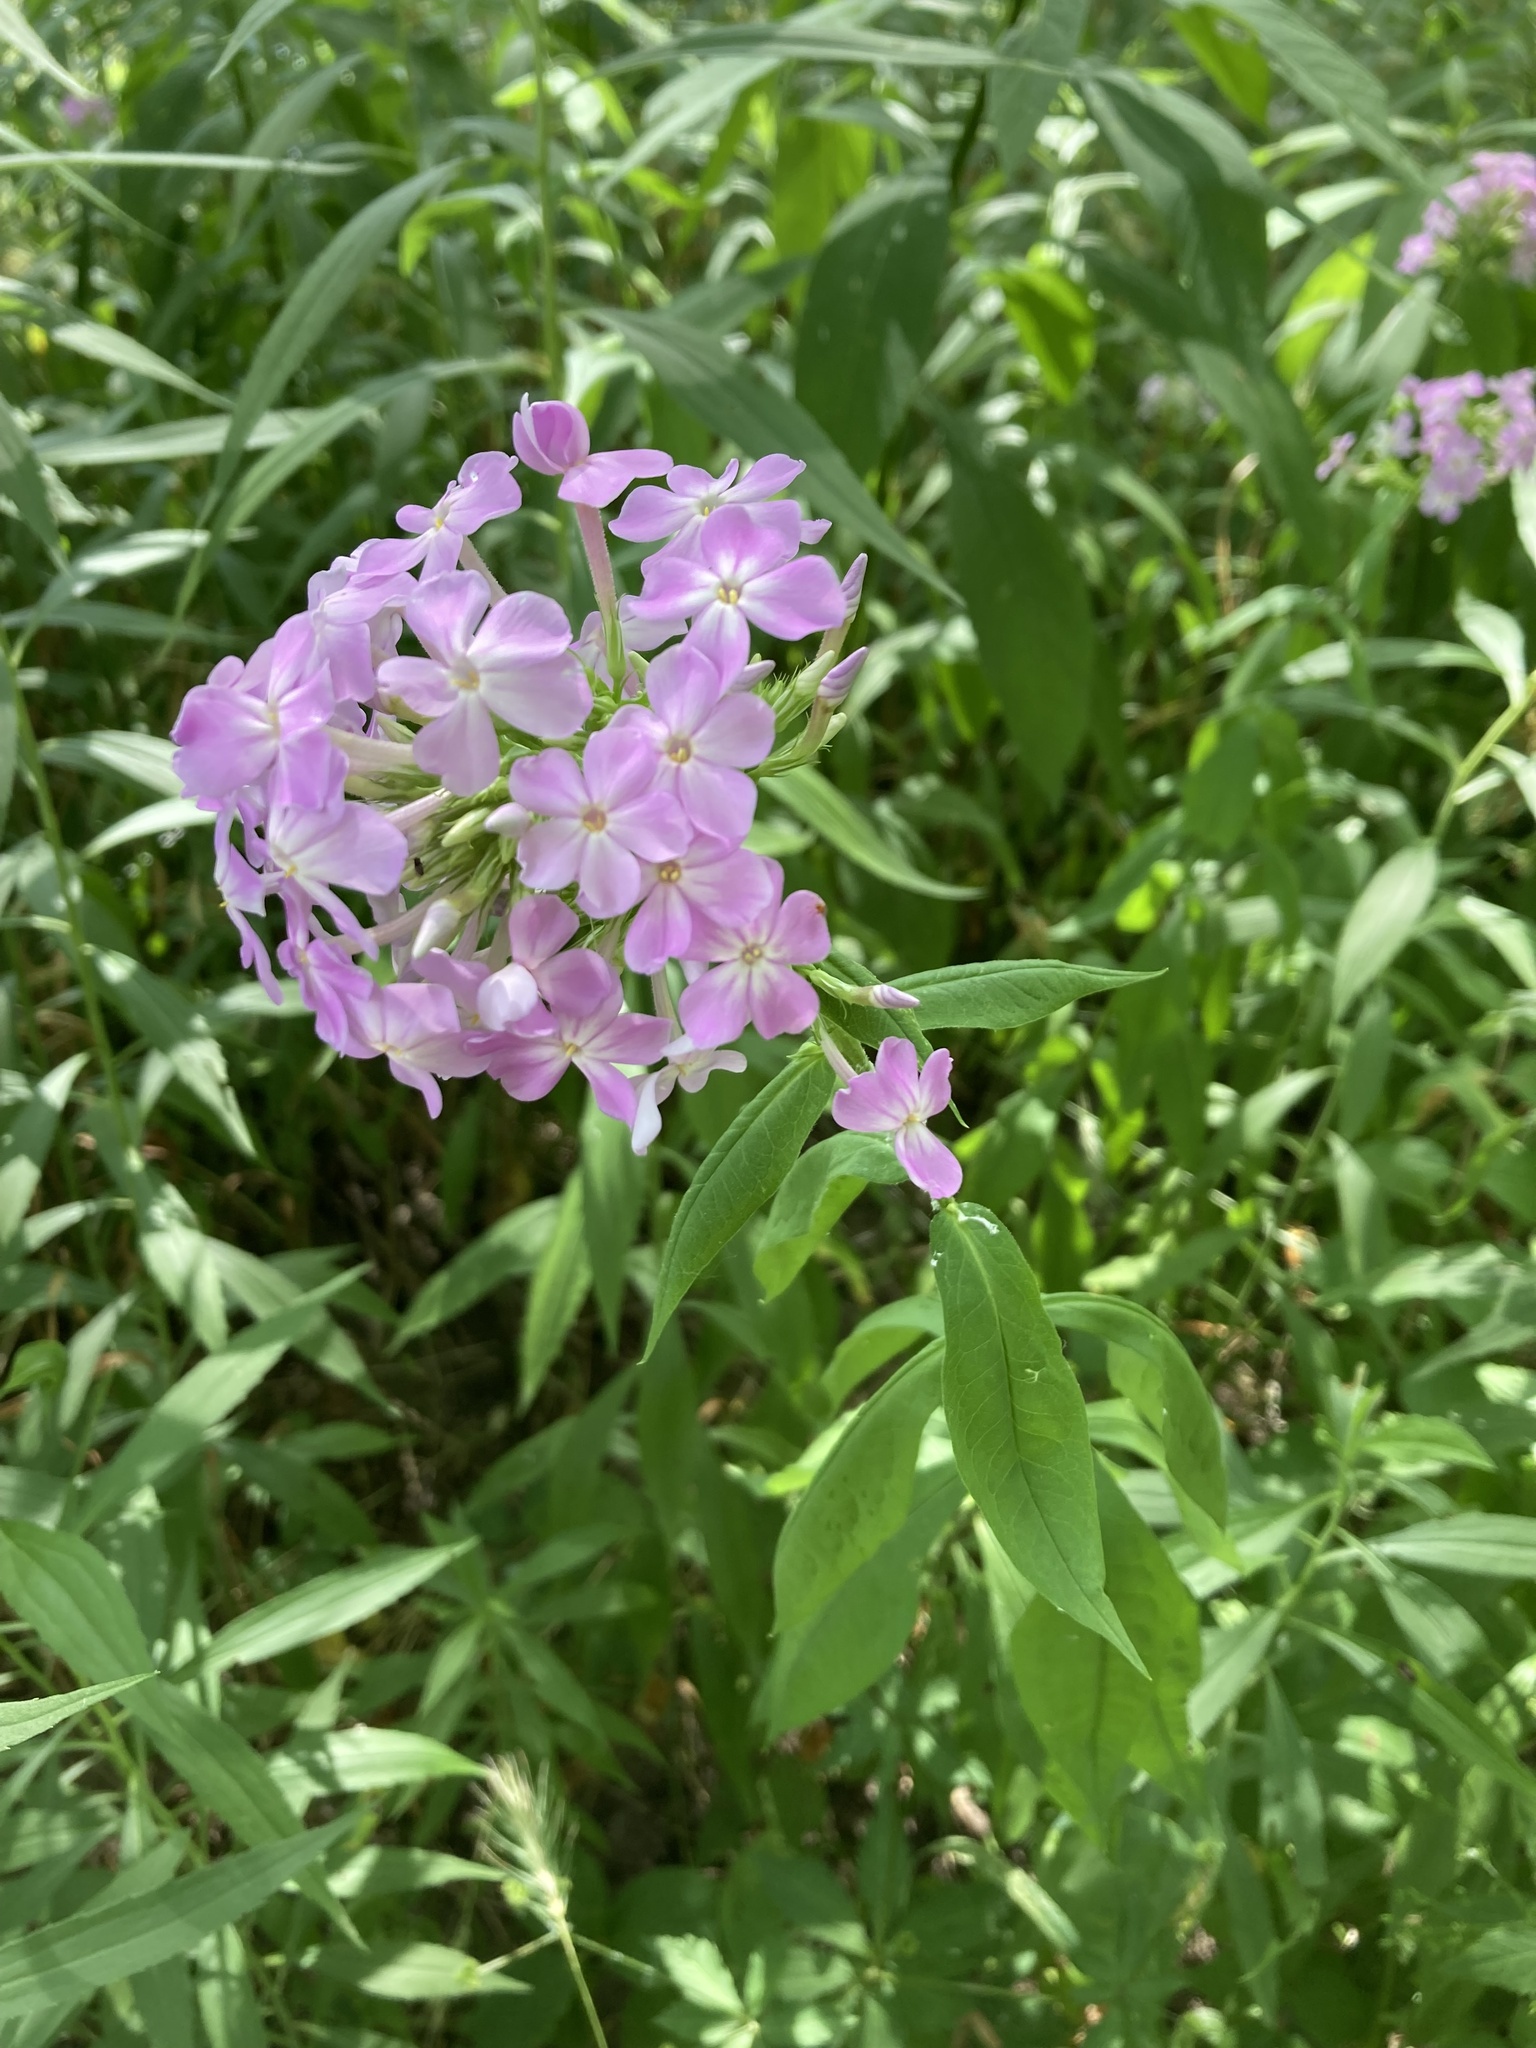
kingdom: Plantae
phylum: Tracheophyta
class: Magnoliopsida
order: Ericales
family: Polemoniaceae
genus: Phlox
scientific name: Phlox paniculata
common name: Fall phlox
